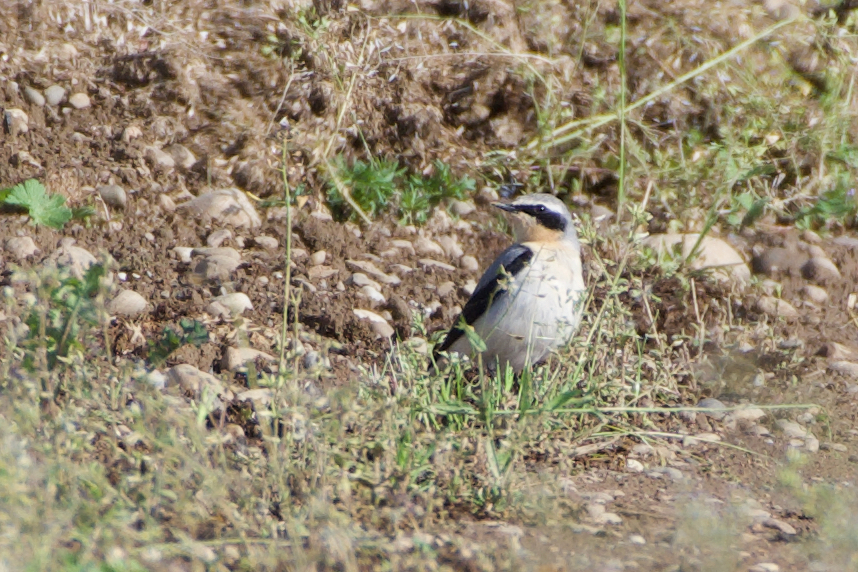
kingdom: Animalia
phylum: Chordata
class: Aves
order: Passeriformes
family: Muscicapidae
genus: Oenanthe
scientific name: Oenanthe oenanthe
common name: Northern wheatear
